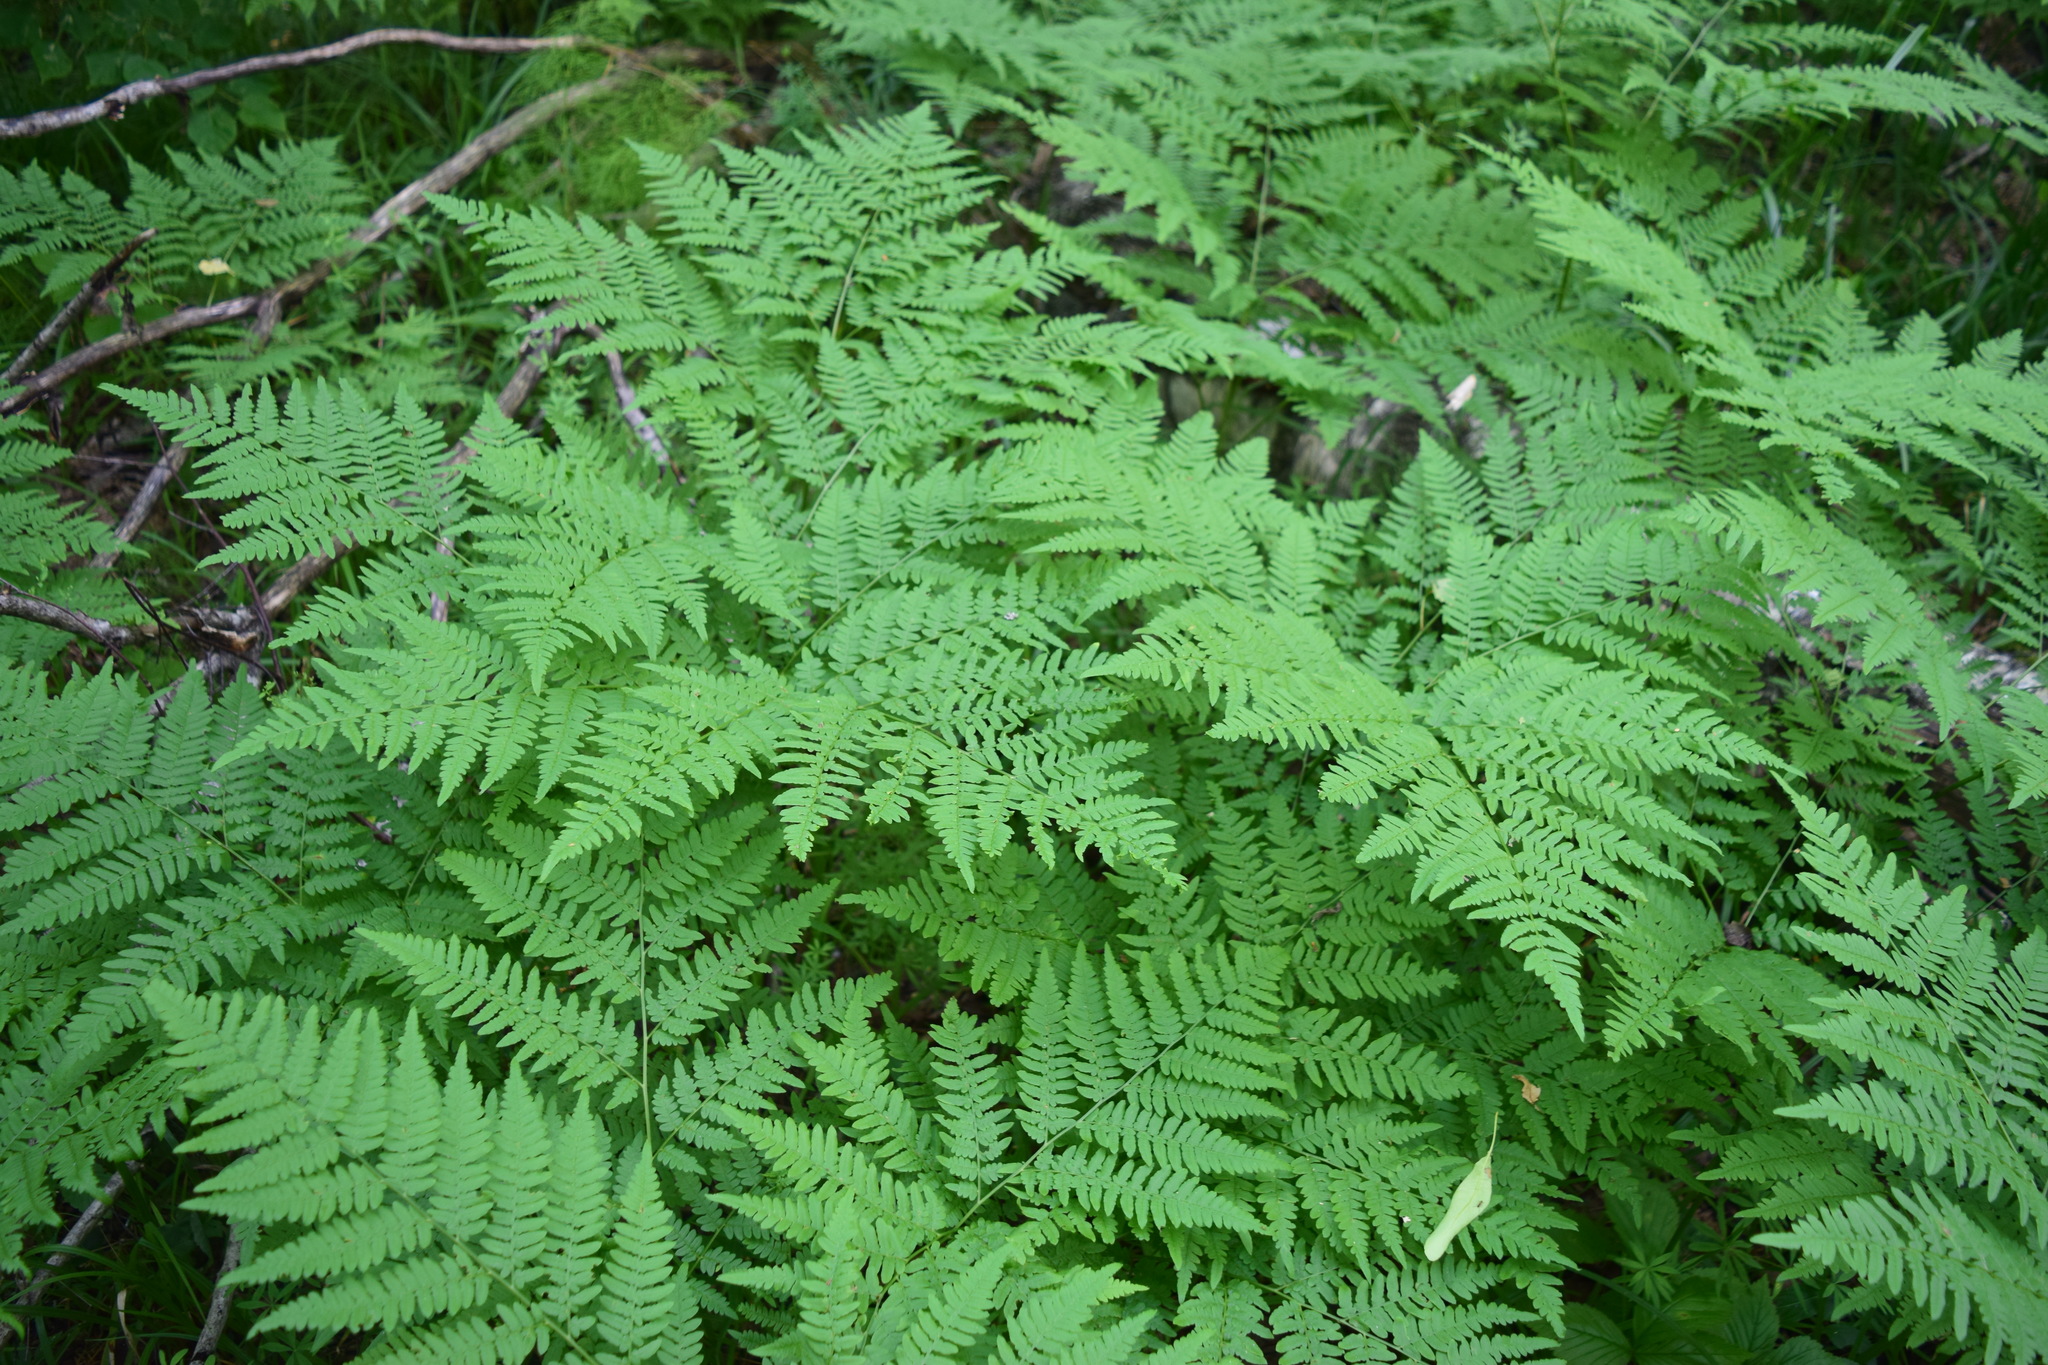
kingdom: Plantae
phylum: Tracheophyta
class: Polypodiopsida
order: Polypodiales
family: Dennstaedtiaceae
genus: Pteridium
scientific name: Pteridium aquilinum
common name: Bracken
